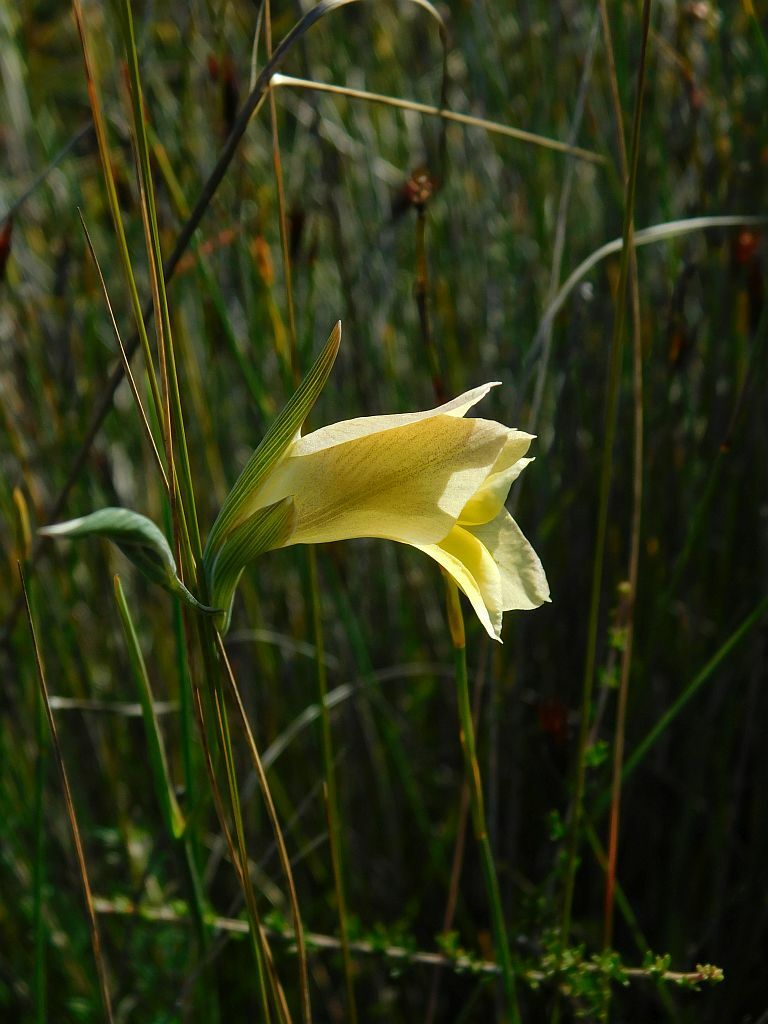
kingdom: Plantae
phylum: Tracheophyta
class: Liliopsida
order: Asparagales
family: Iridaceae
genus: Gladiolus
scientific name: Gladiolus carinatus
